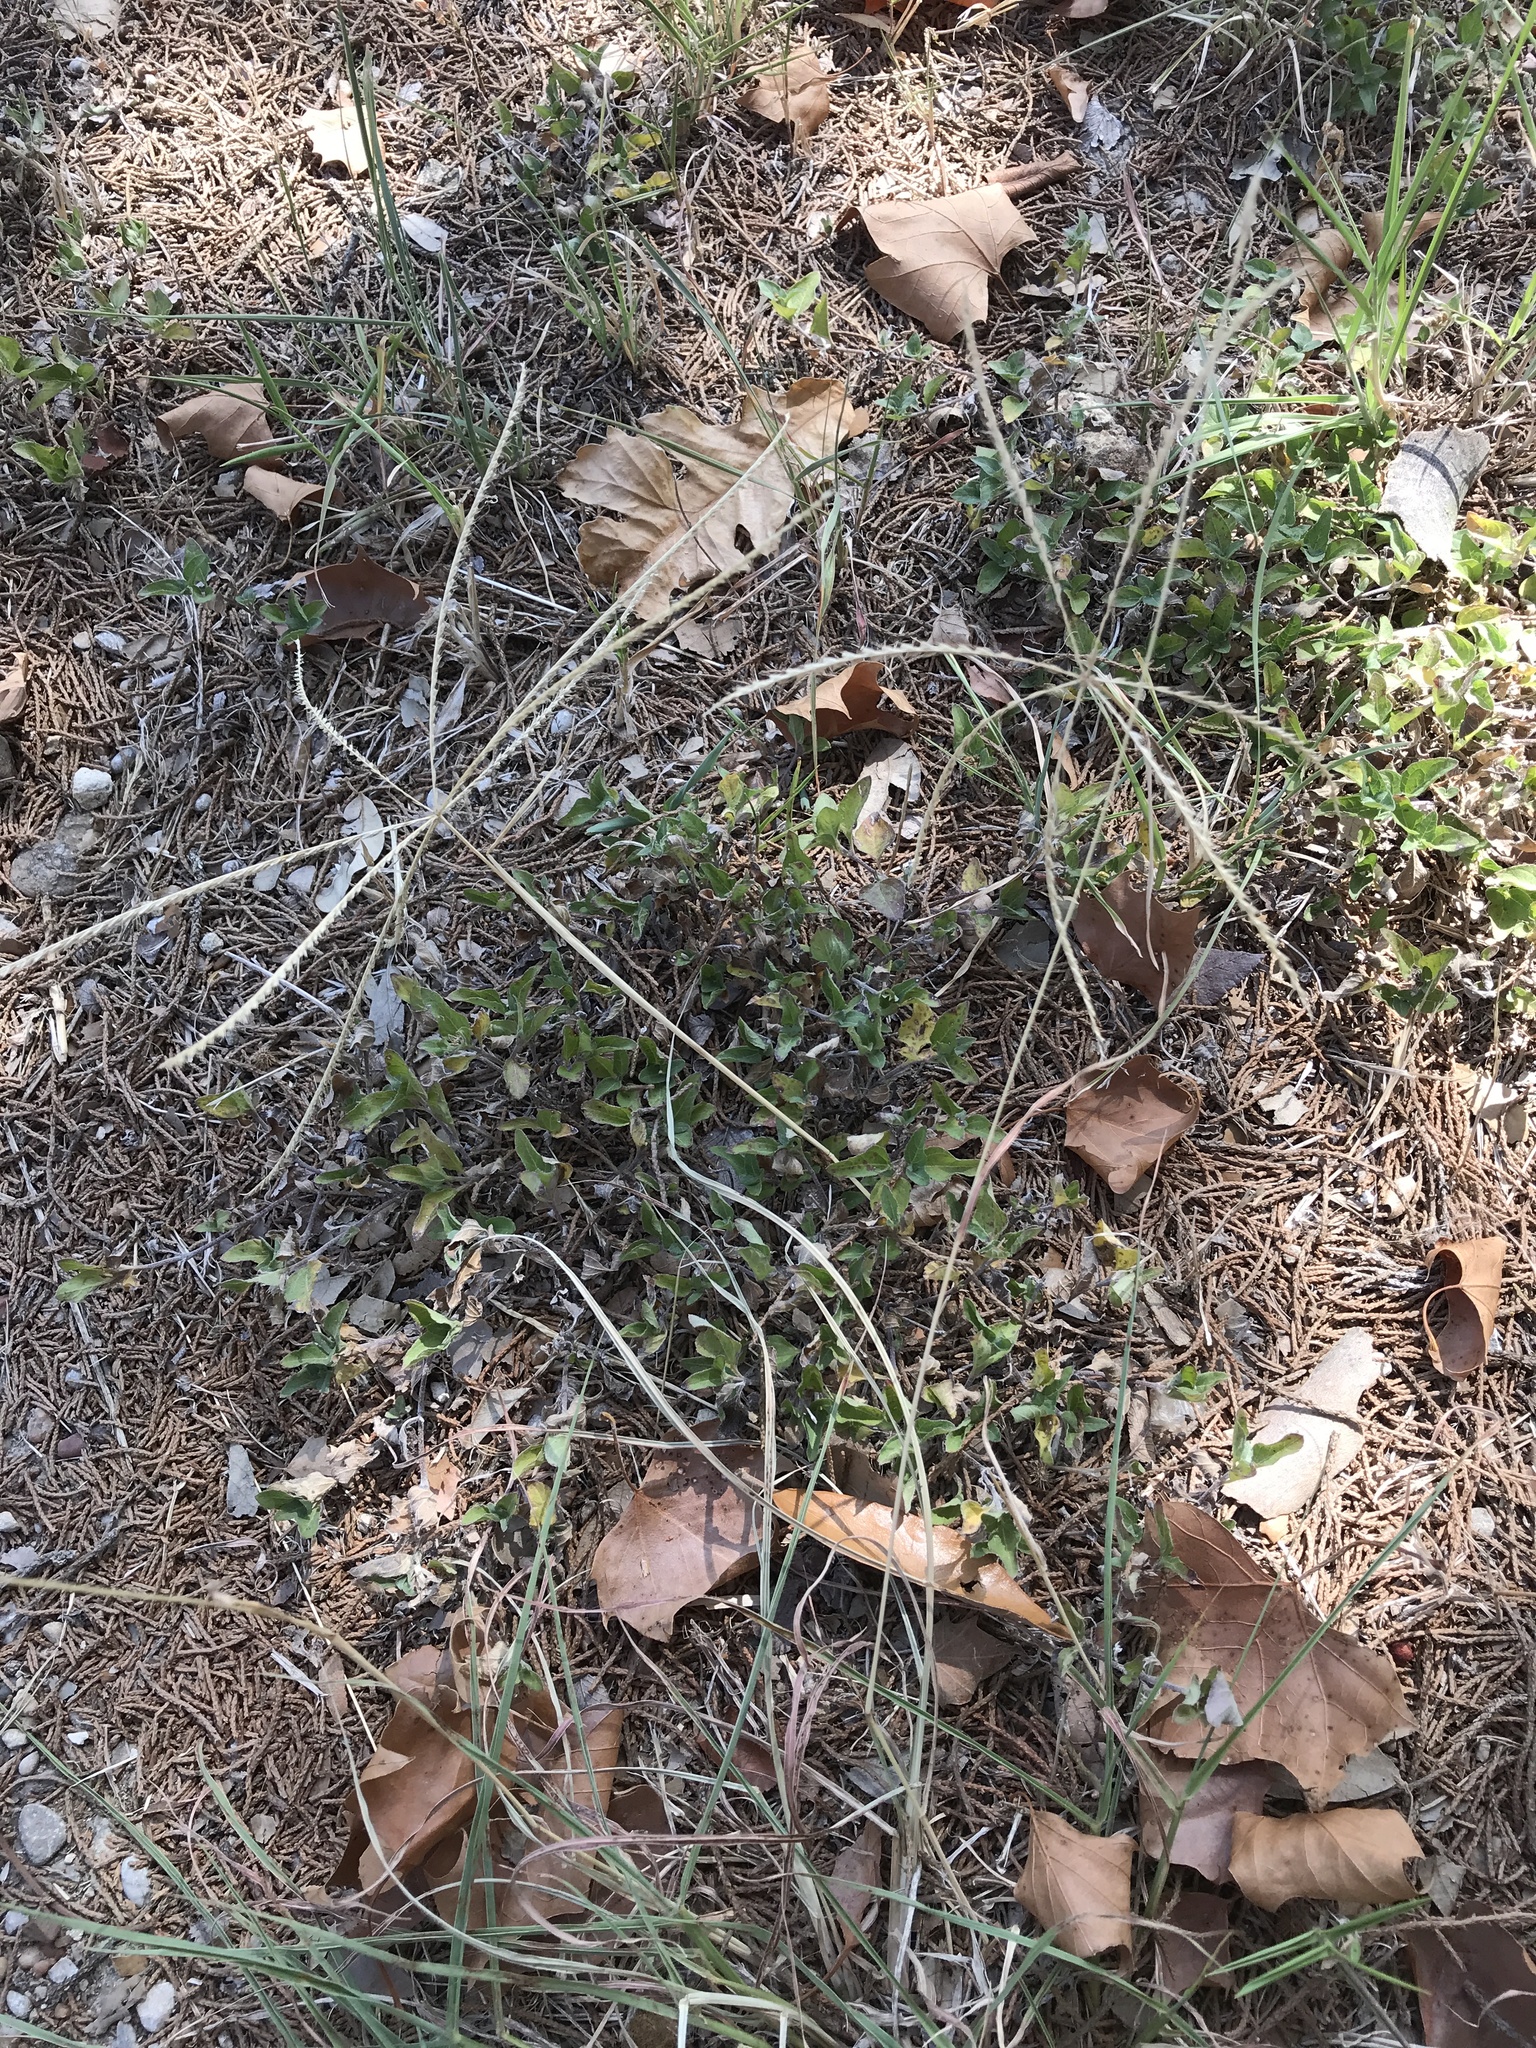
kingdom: Plantae
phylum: Tracheophyta
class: Liliopsida
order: Poales
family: Poaceae
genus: Chloris
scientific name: Chloris andropogonoides
